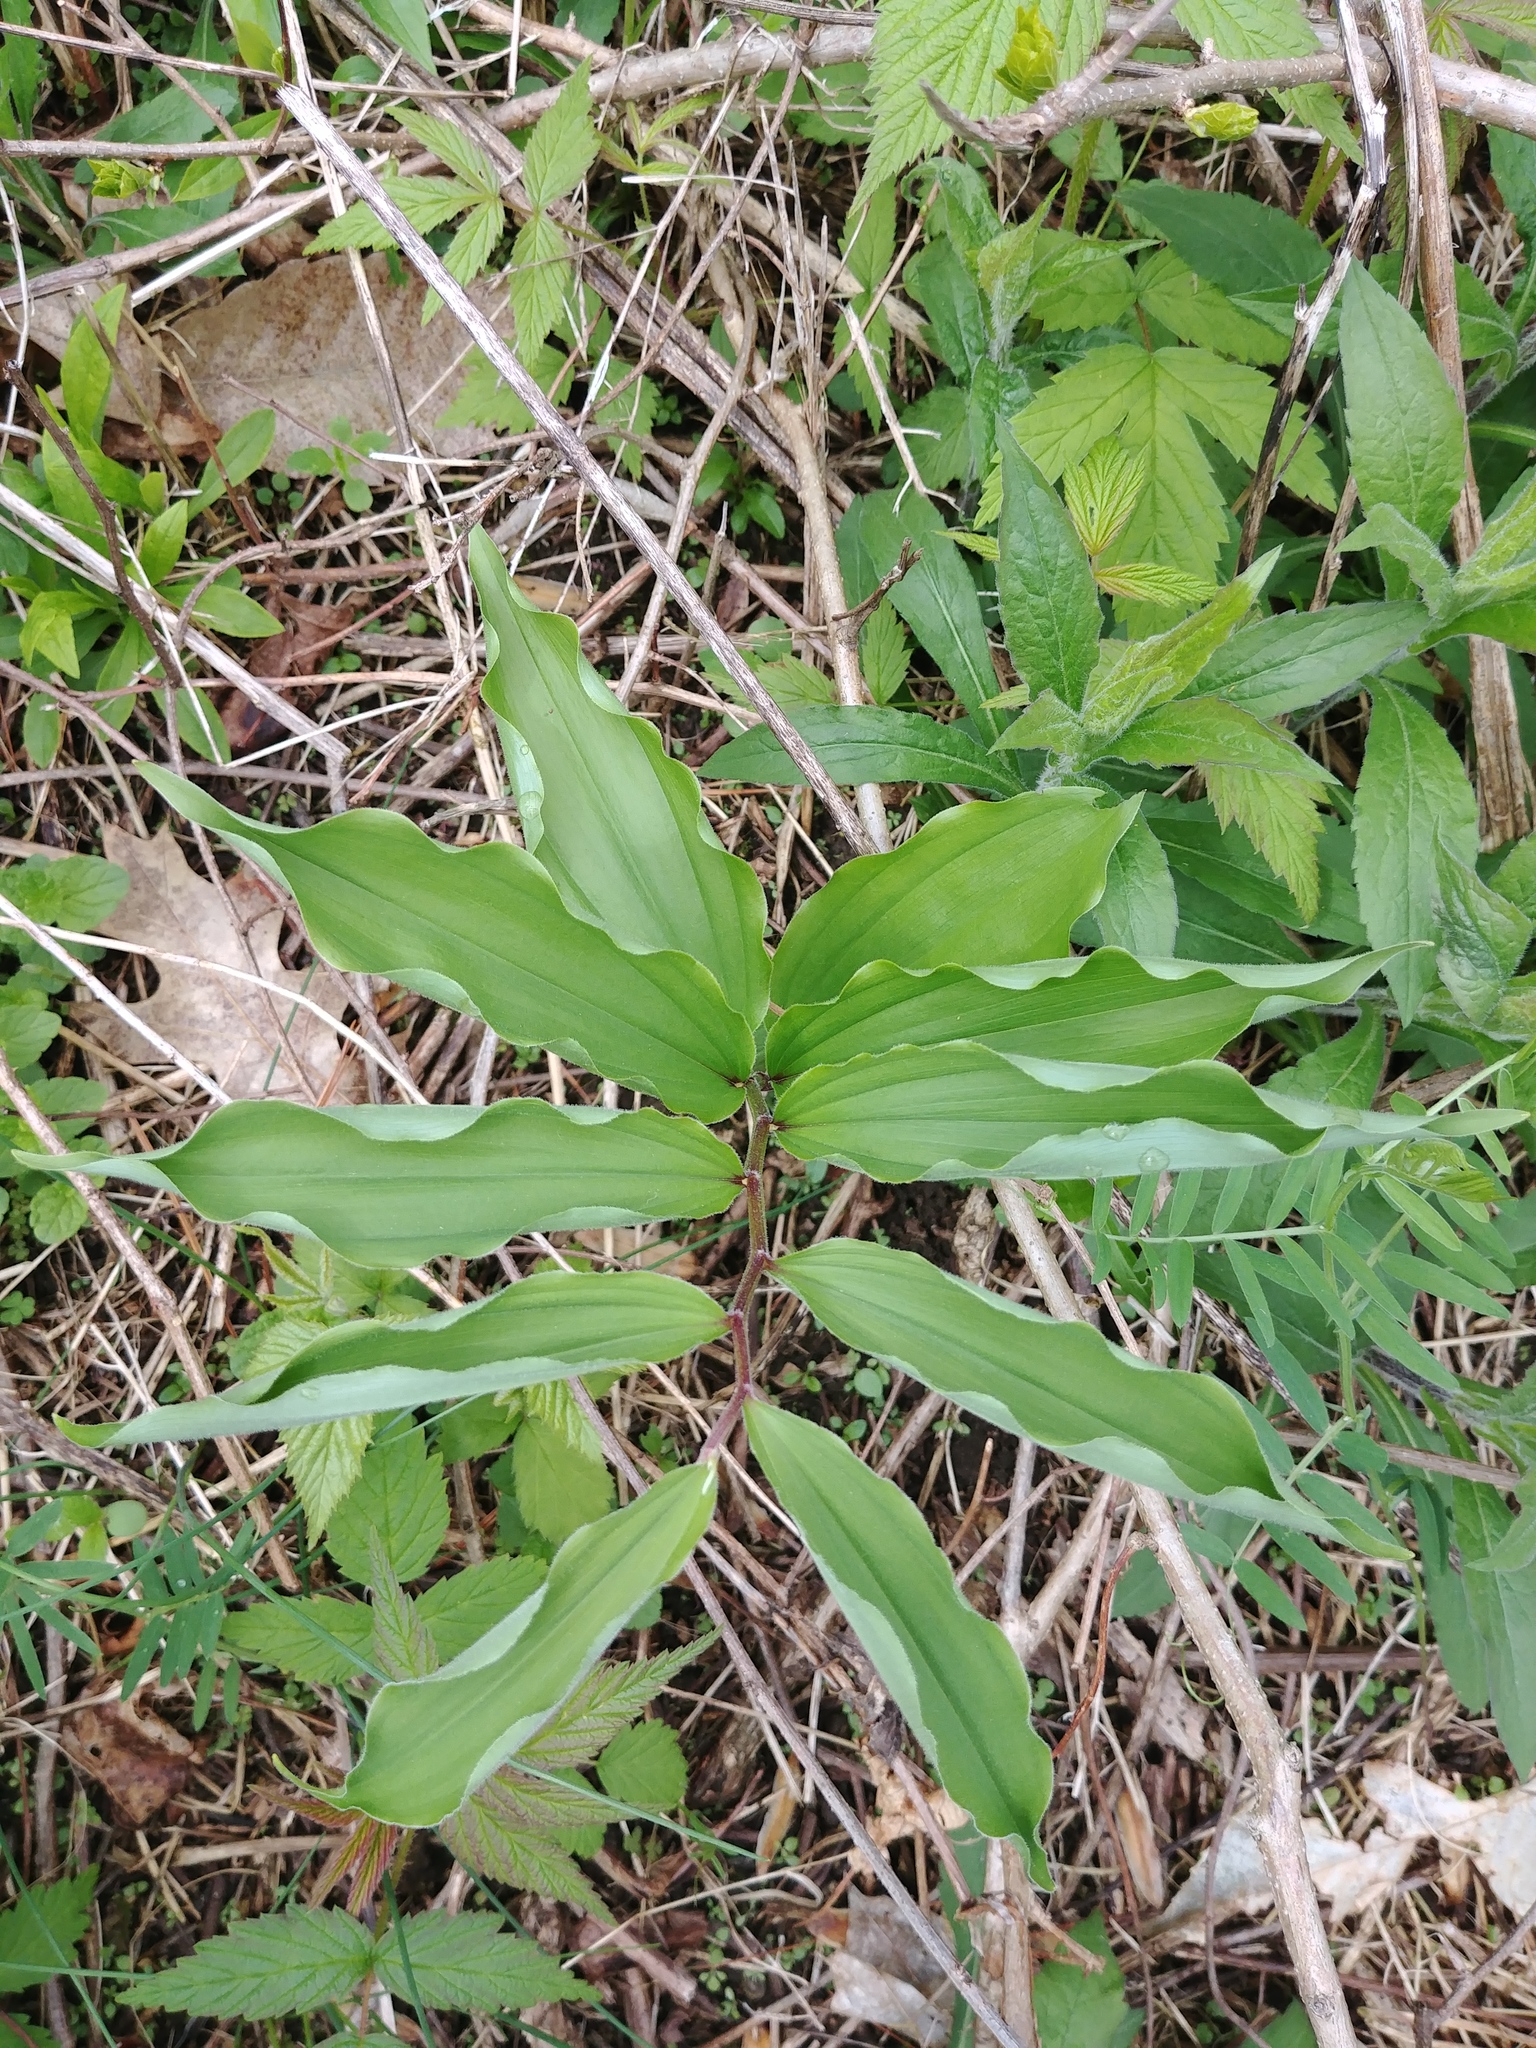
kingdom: Plantae
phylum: Tracheophyta
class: Liliopsida
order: Asparagales
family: Asparagaceae
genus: Maianthemum
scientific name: Maianthemum racemosum
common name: False spikenard
